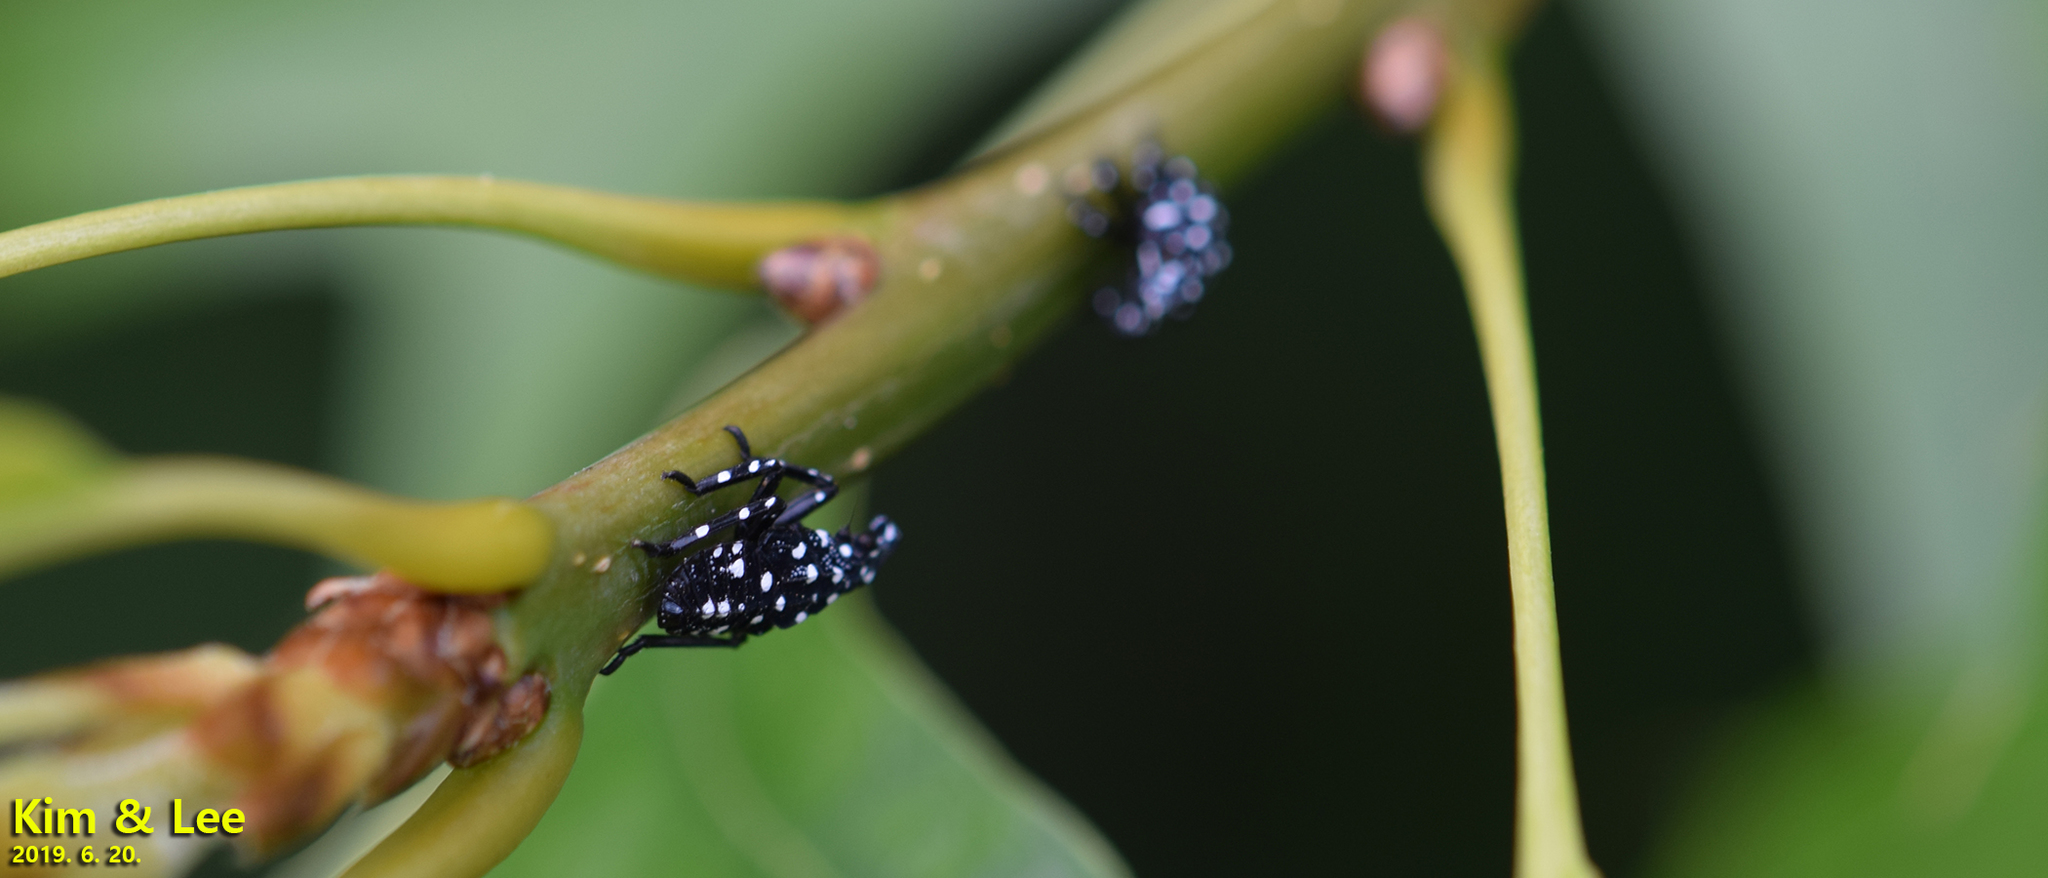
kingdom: Animalia
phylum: Arthropoda
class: Insecta
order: Hemiptera
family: Fulgoridae
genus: Lycorma
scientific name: Lycorma delicatula
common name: Spotted lanternfly
